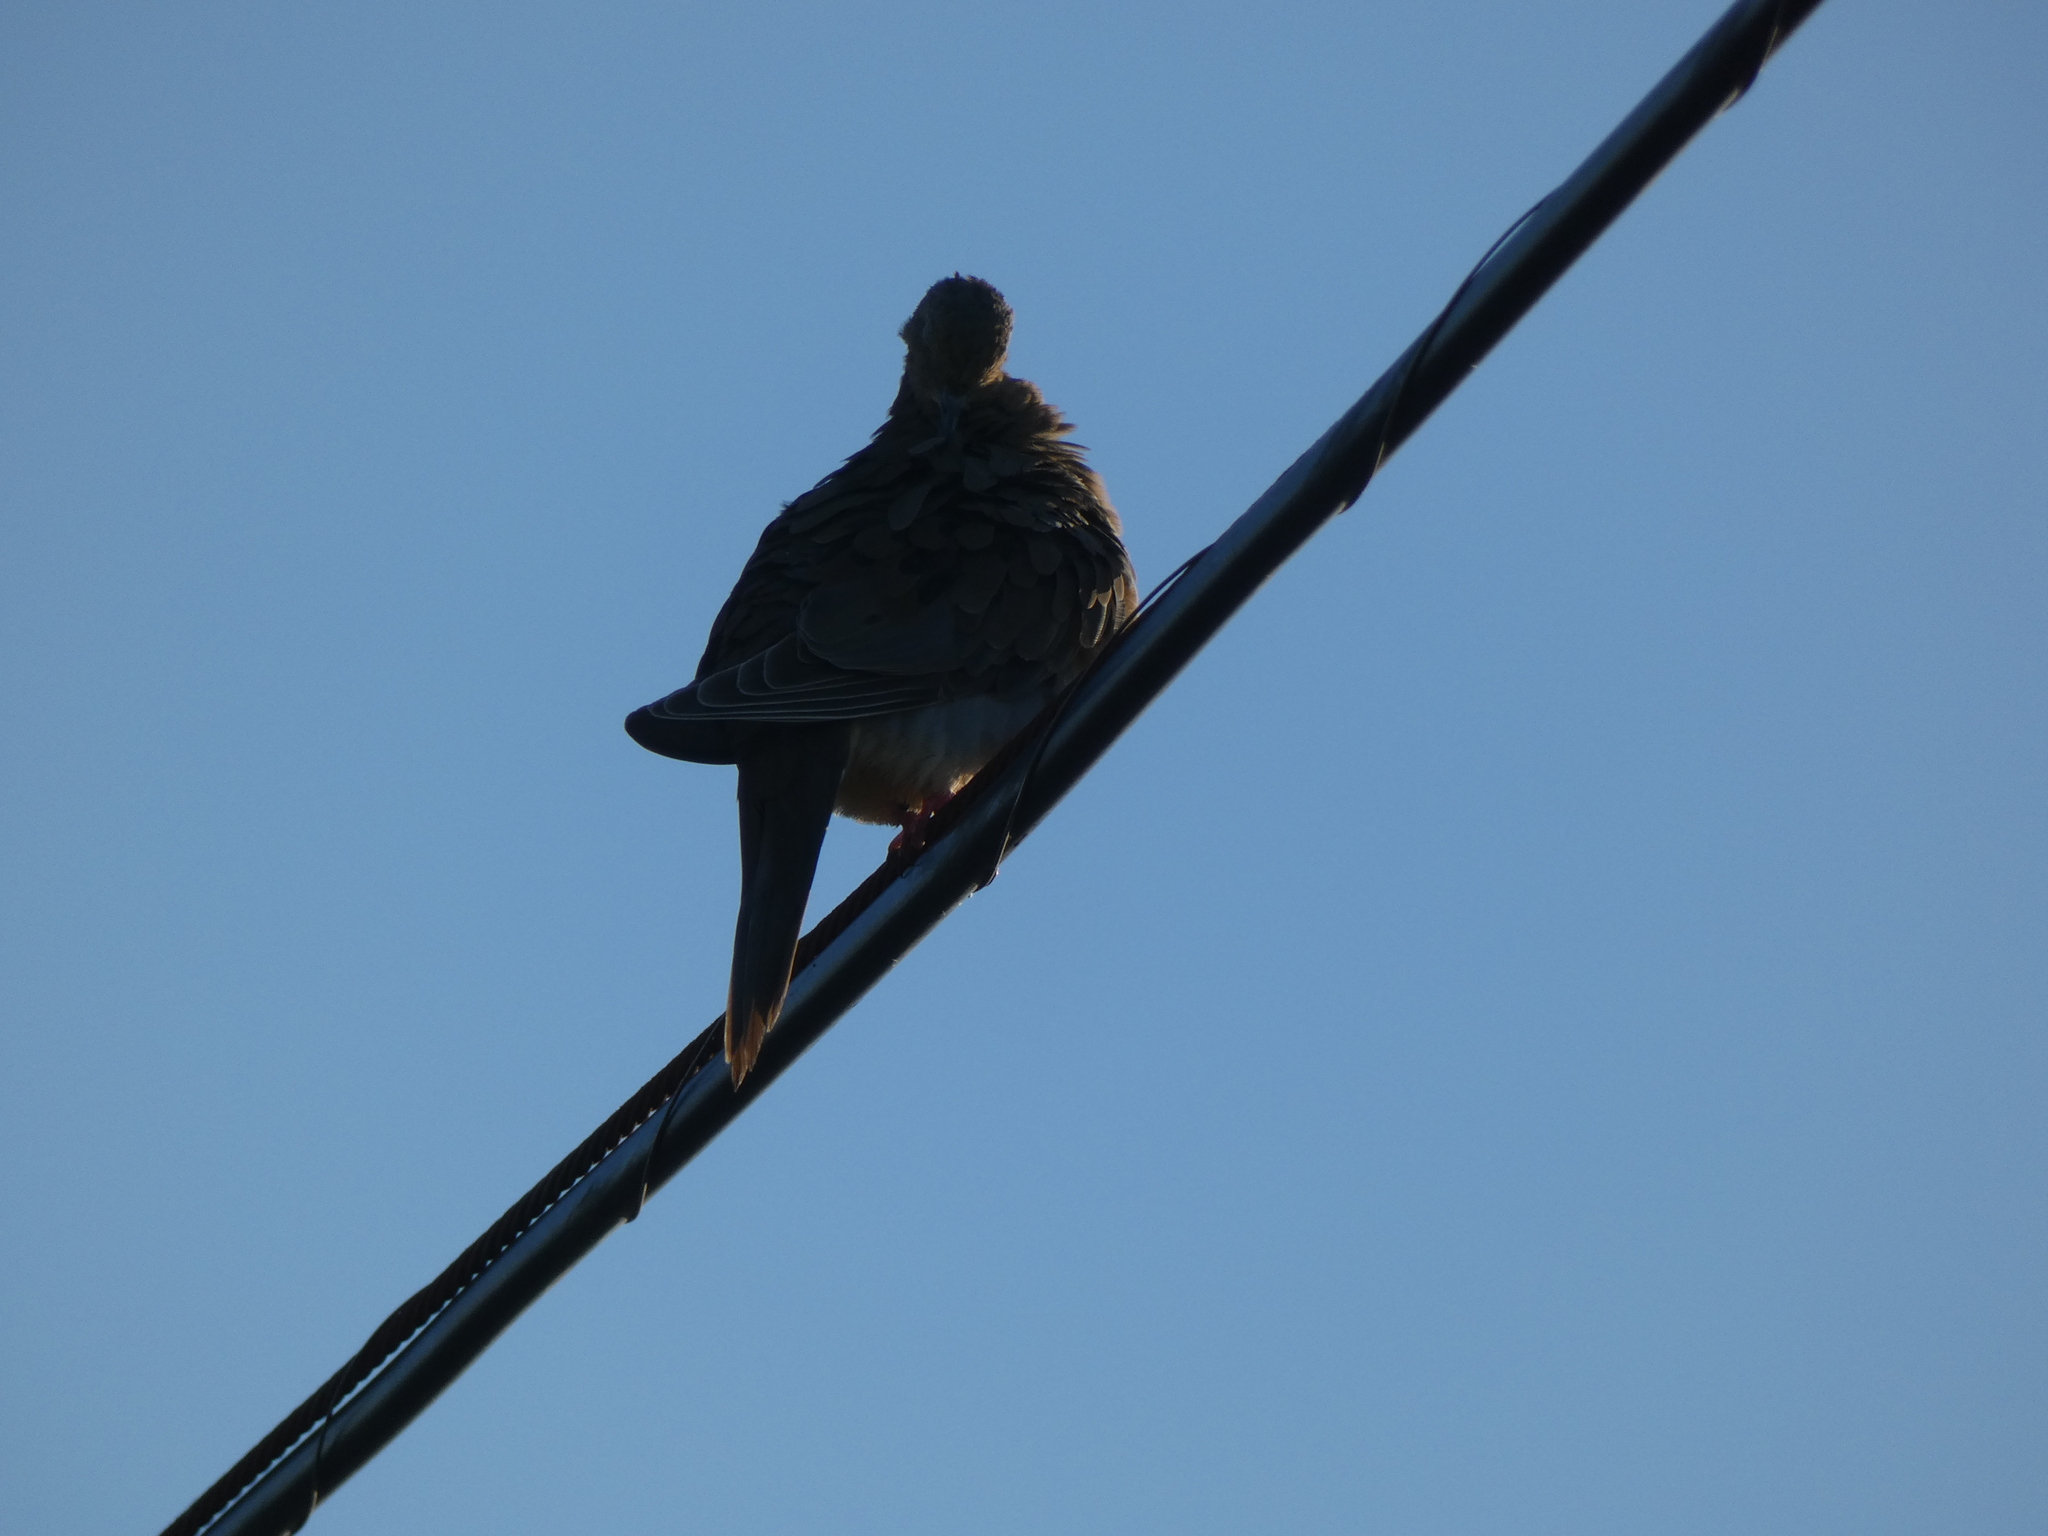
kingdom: Animalia
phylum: Chordata
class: Aves
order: Columbiformes
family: Columbidae
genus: Zenaida
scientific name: Zenaida macroura
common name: Mourning dove
